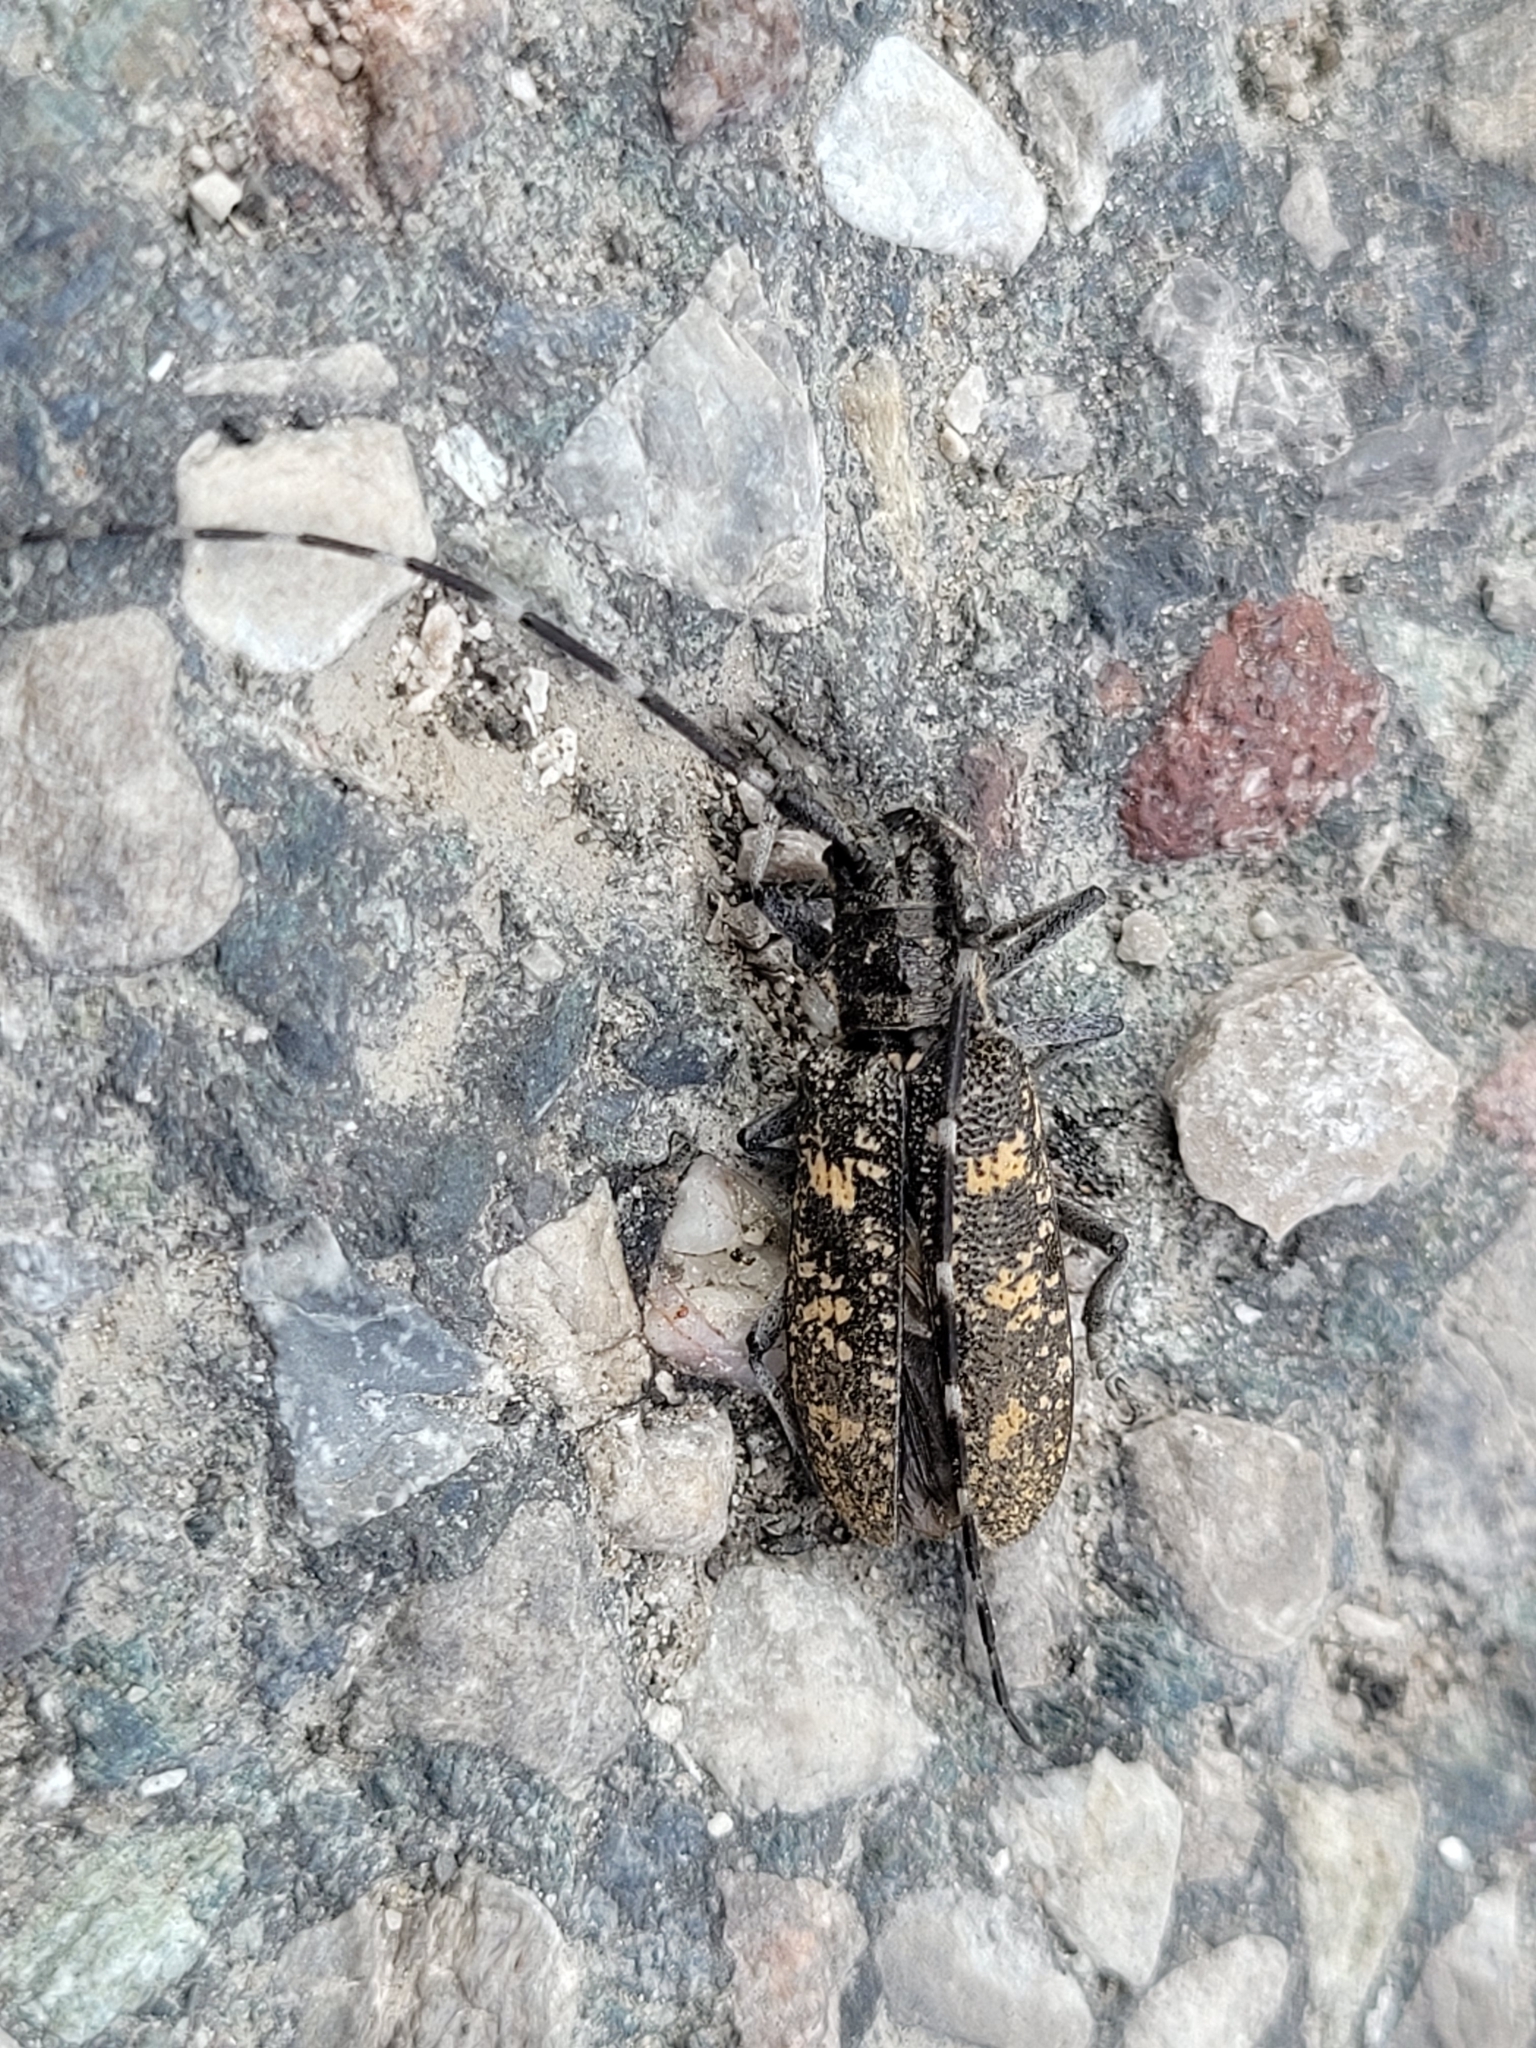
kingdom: Animalia
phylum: Arthropoda
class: Insecta
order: Coleoptera
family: Cerambycidae
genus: Monochamus
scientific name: Monochamus sutor
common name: Pine sawyer
